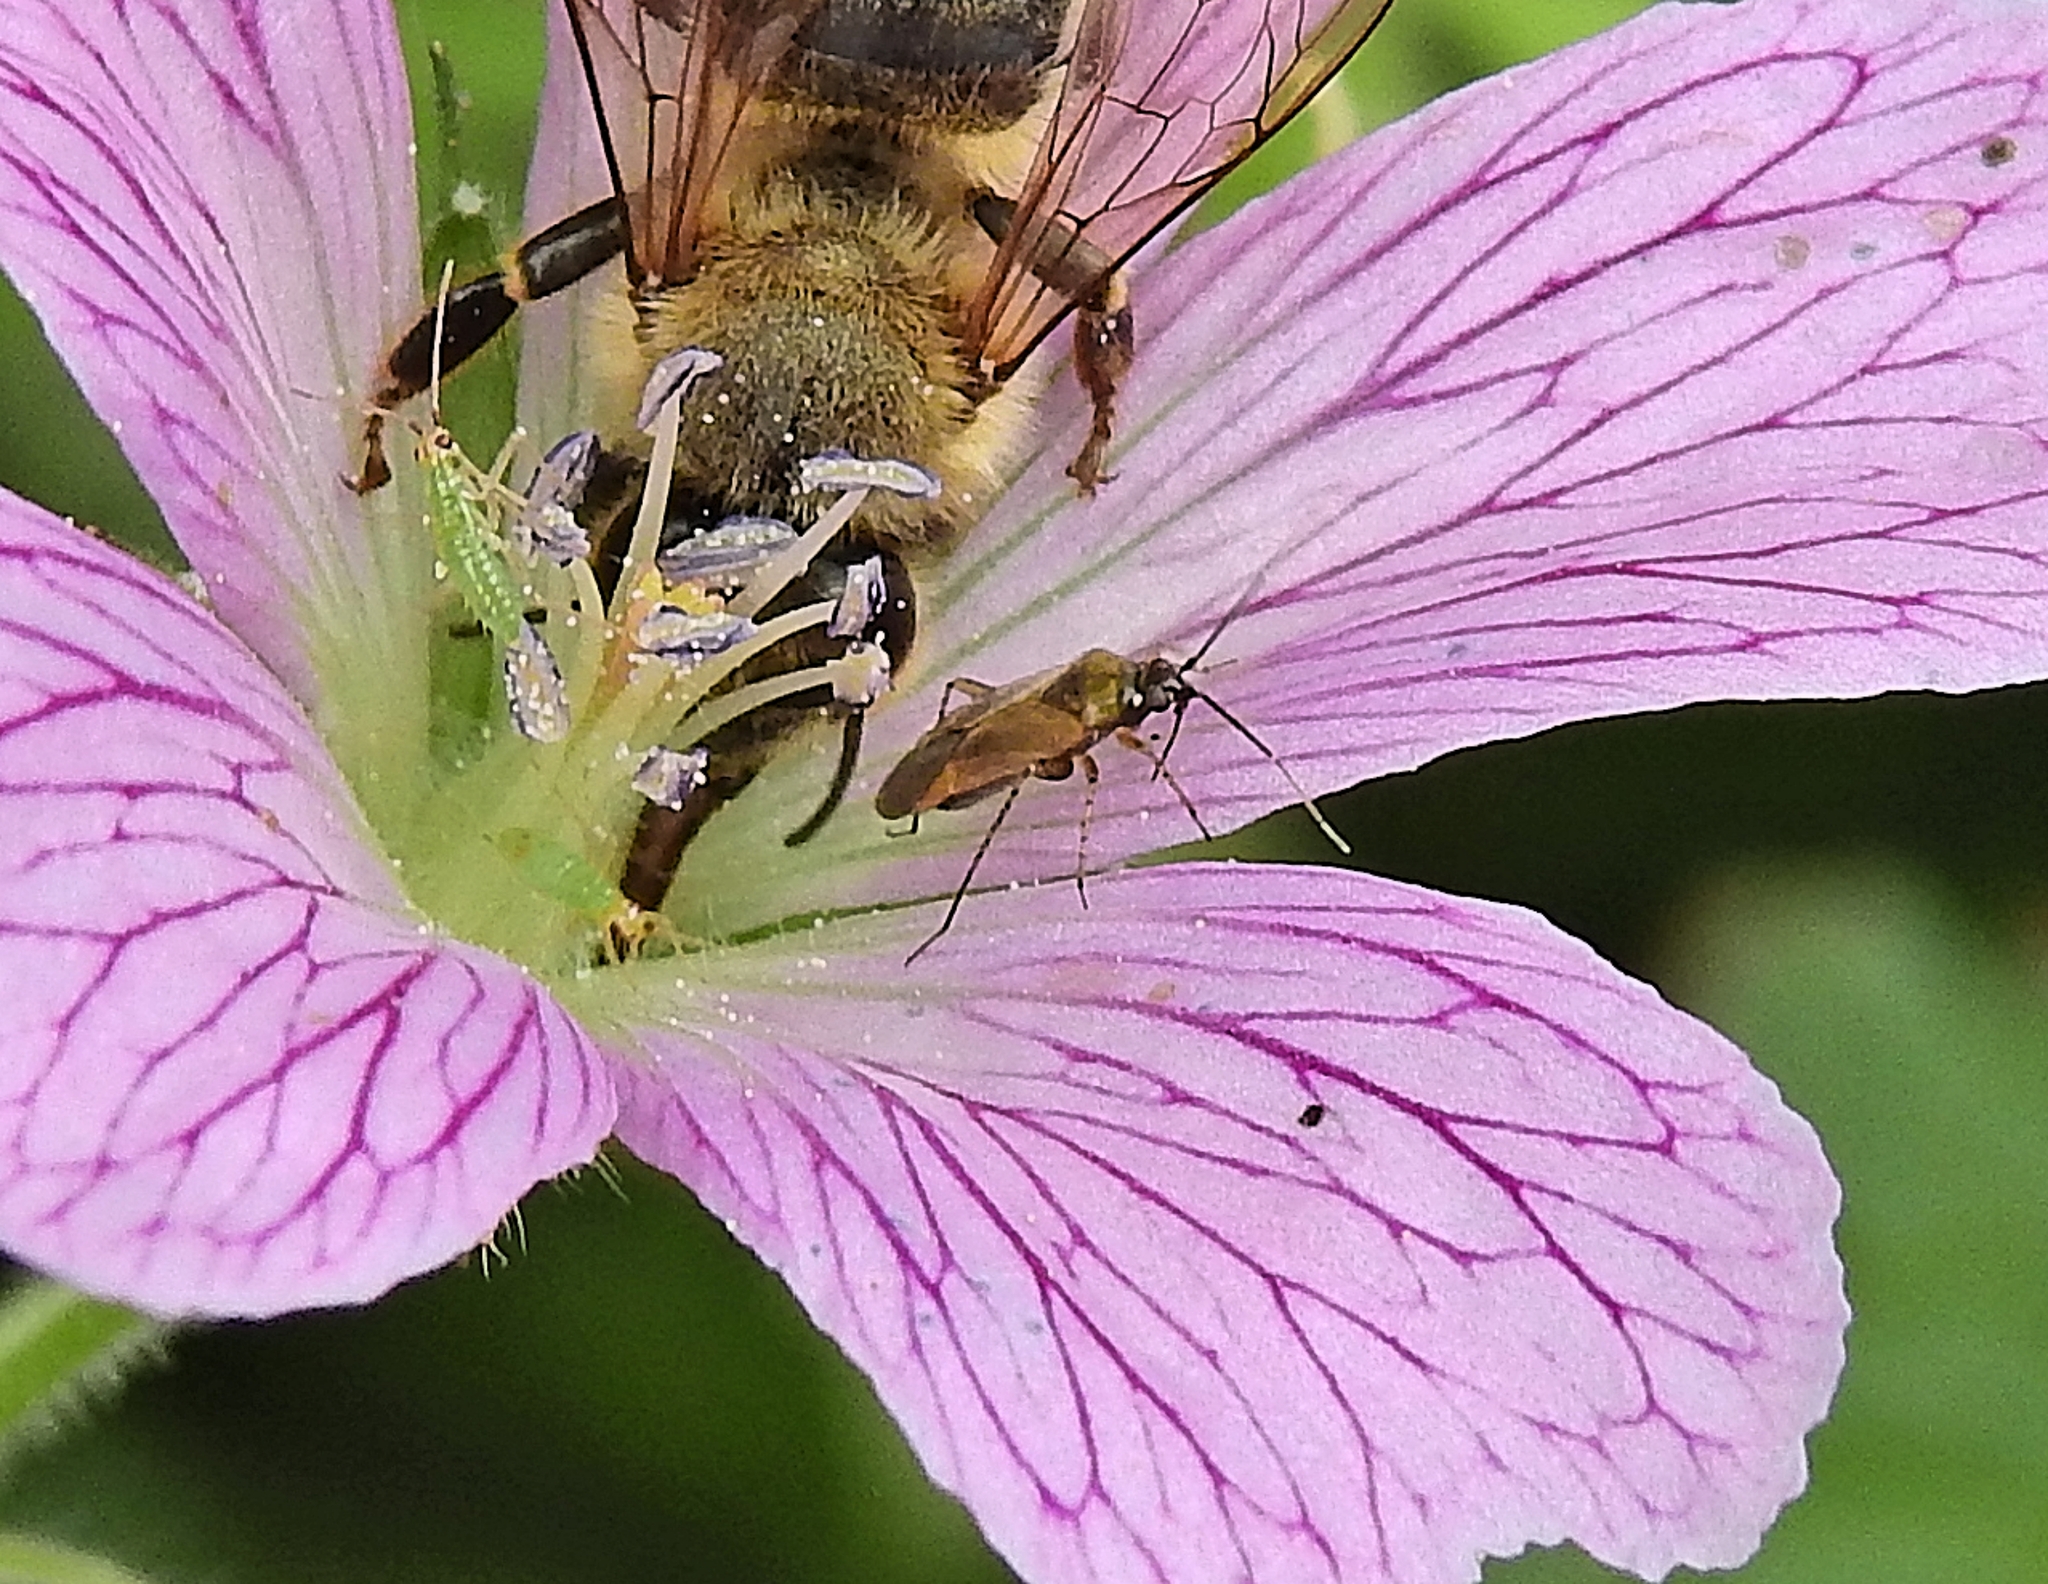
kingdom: Animalia
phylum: Arthropoda
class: Insecta
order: Hemiptera
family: Miridae
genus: Plagiognathus
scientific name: Plagiognathus arbustorum
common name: Plant bug
